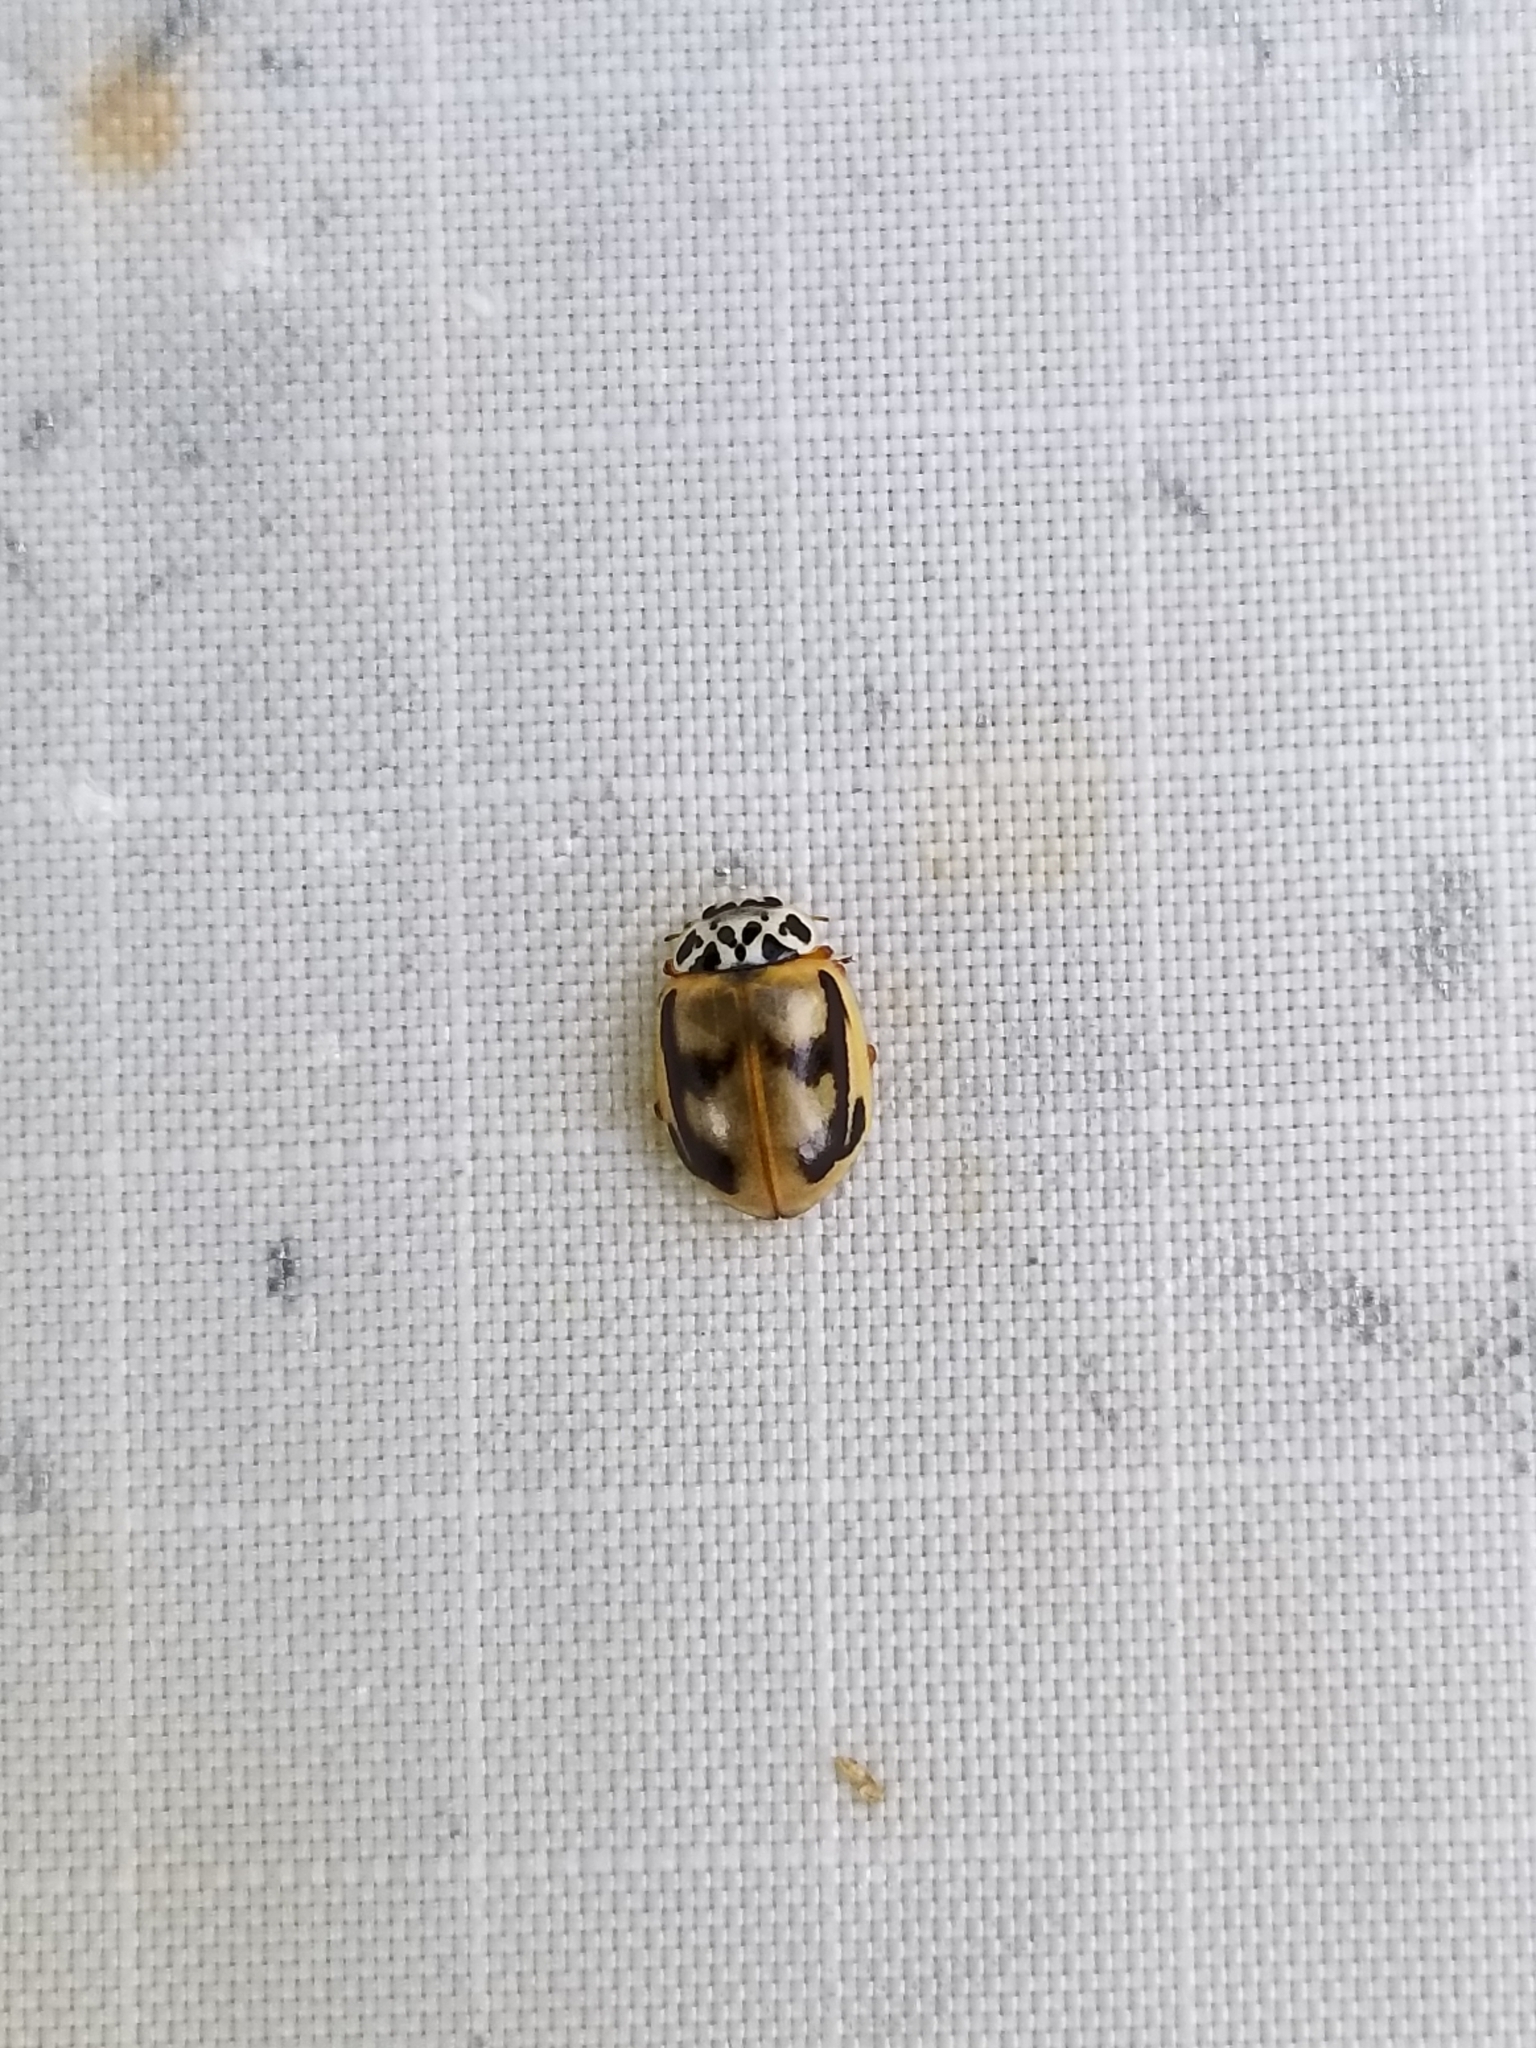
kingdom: Animalia
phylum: Arthropoda
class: Insecta
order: Coleoptera
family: Coccinellidae
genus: Mulsantina
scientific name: Mulsantina picta
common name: Painted ladybird
